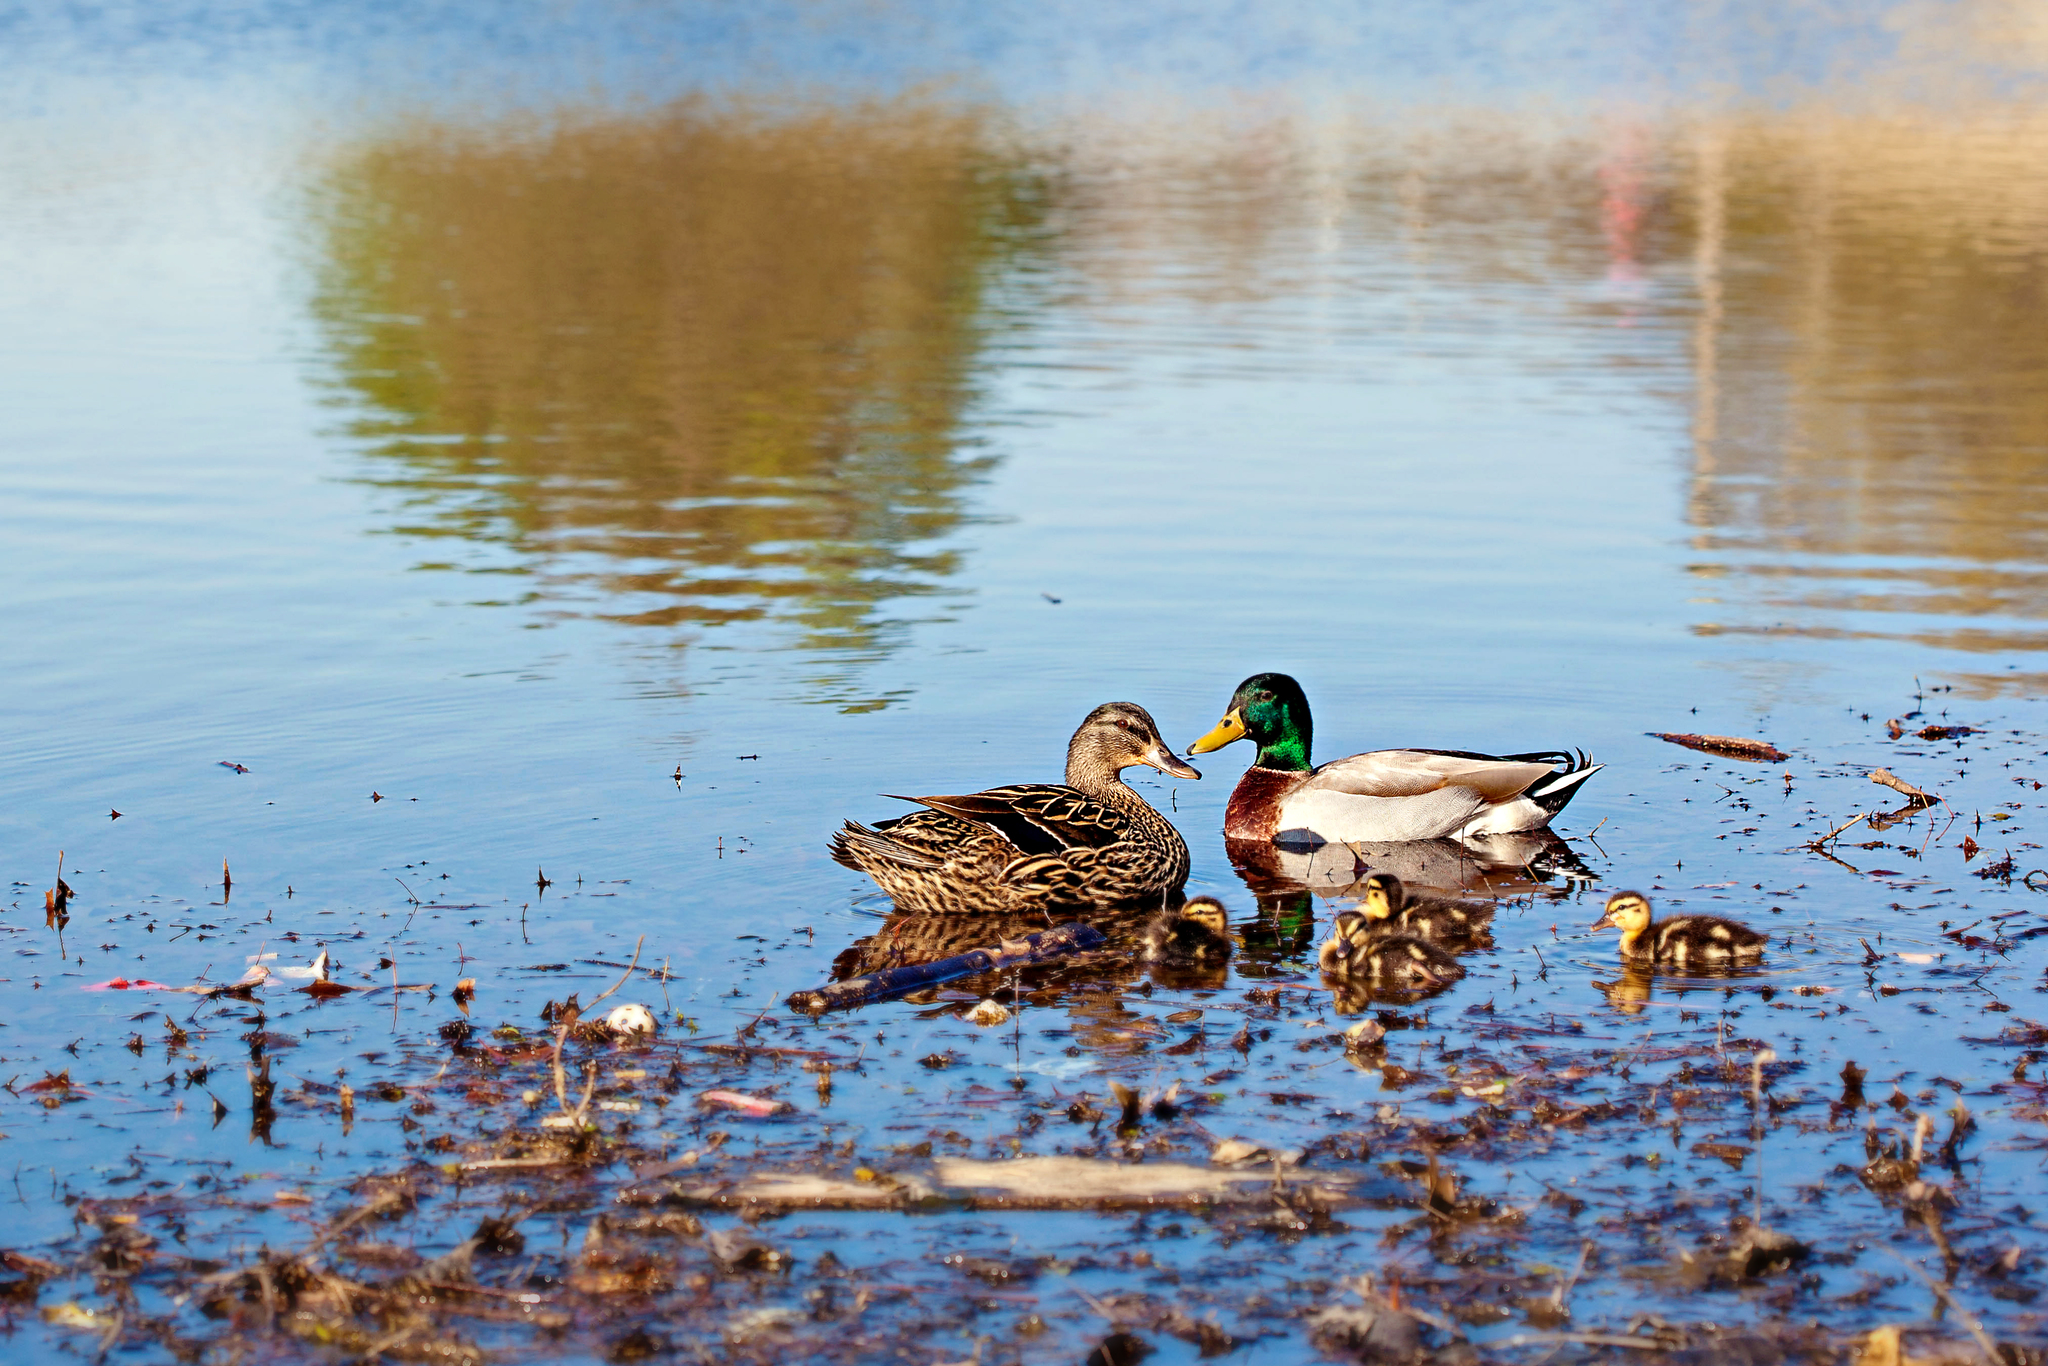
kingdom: Animalia
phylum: Chordata
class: Aves
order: Anseriformes
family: Anatidae
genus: Anas
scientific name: Anas platyrhynchos
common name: Mallard
